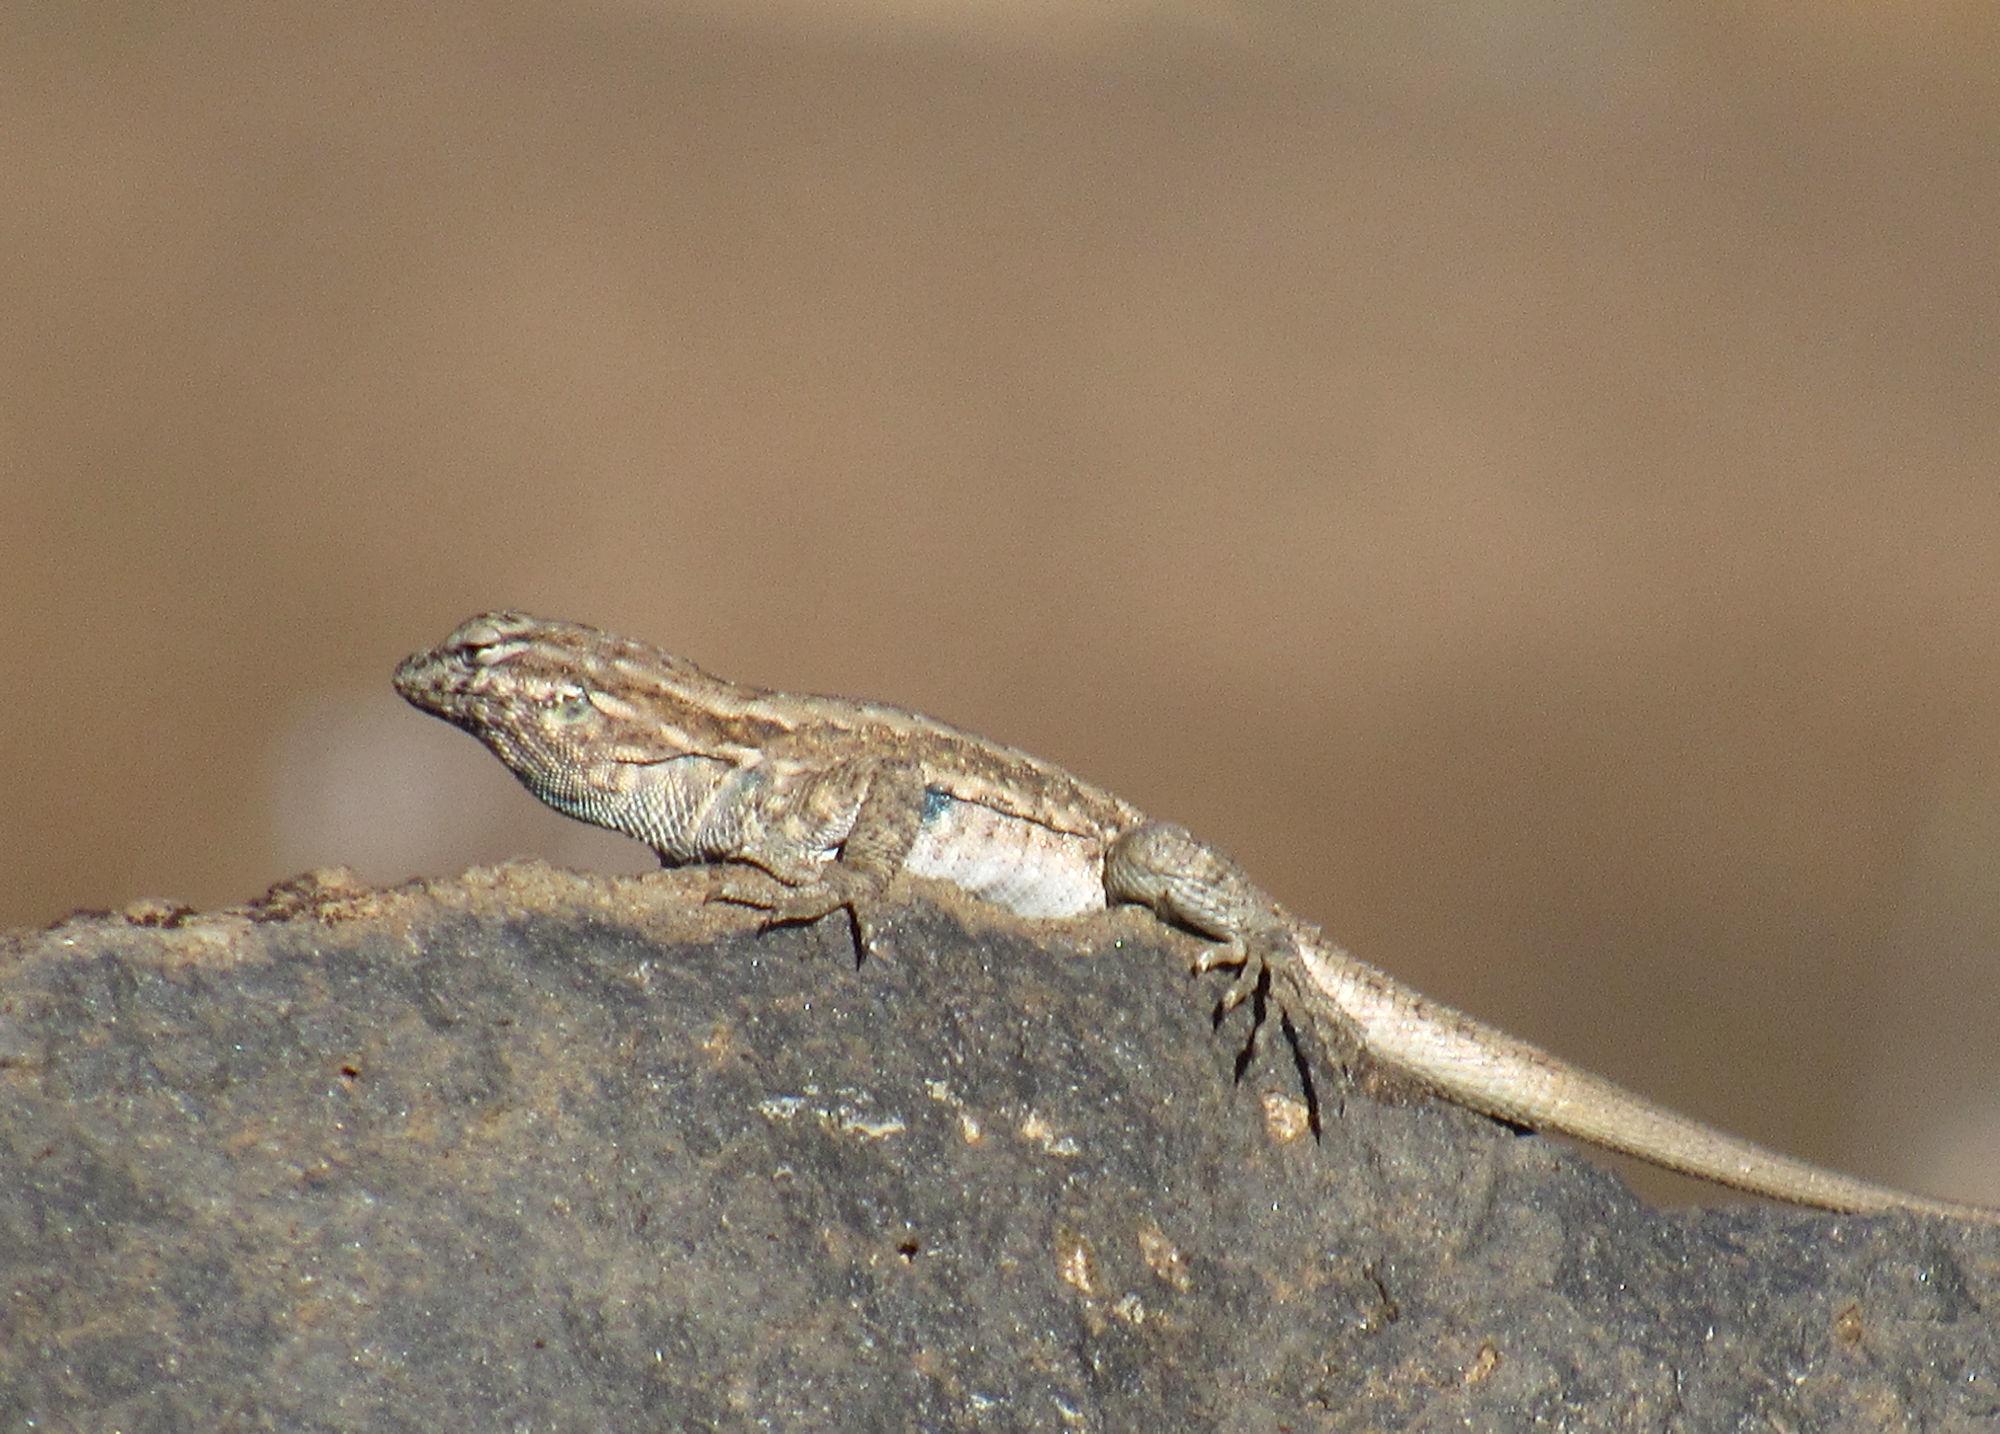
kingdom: Animalia
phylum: Chordata
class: Squamata
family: Phrynosomatidae
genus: Uta
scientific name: Uta stansburiana
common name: Side-blotched lizard
